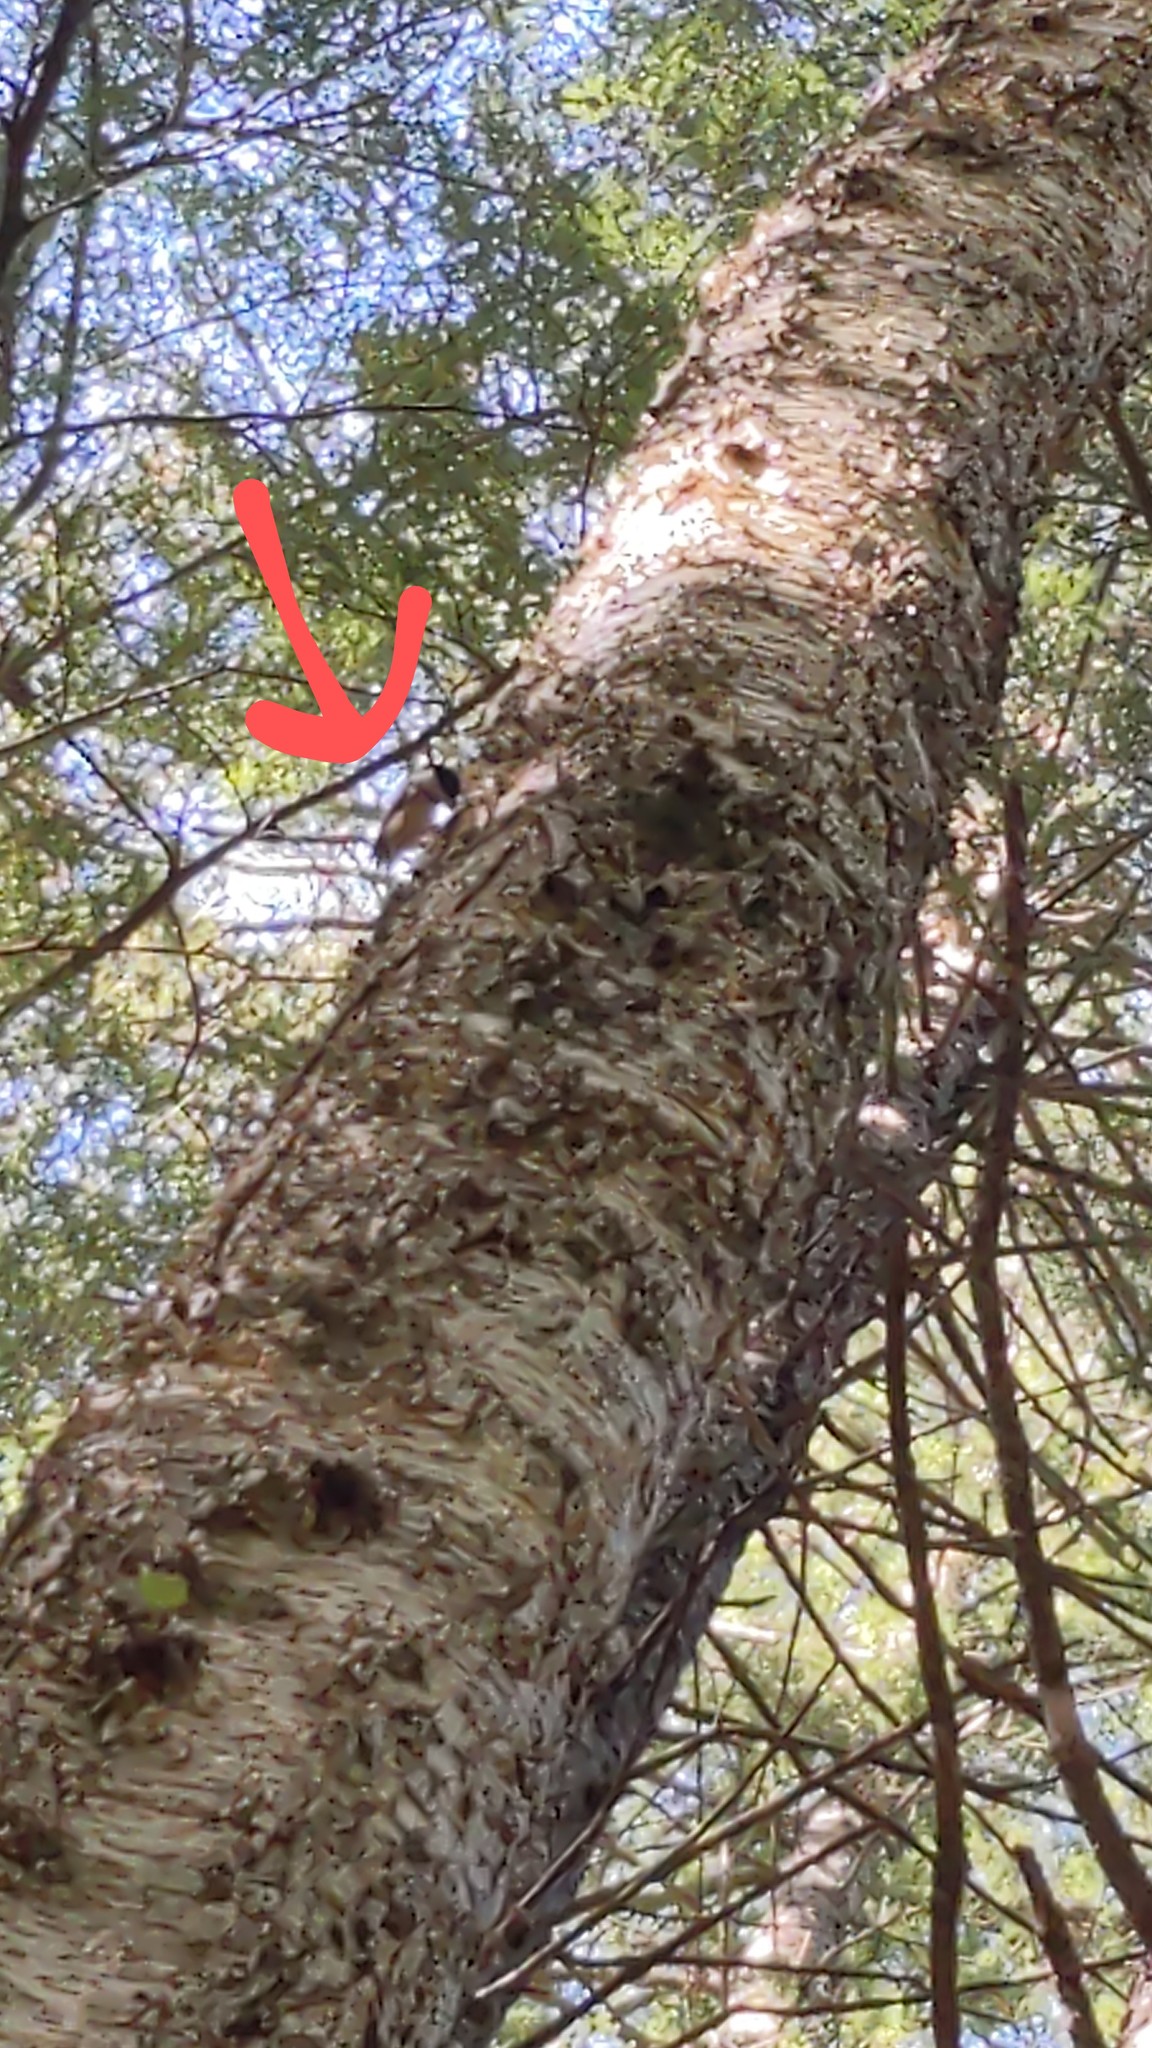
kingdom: Animalia
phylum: Chordata
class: Aves
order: Passeriformes
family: Paridae
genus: Poecile
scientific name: Poecile atricapillus
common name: Black-capped chickadee
